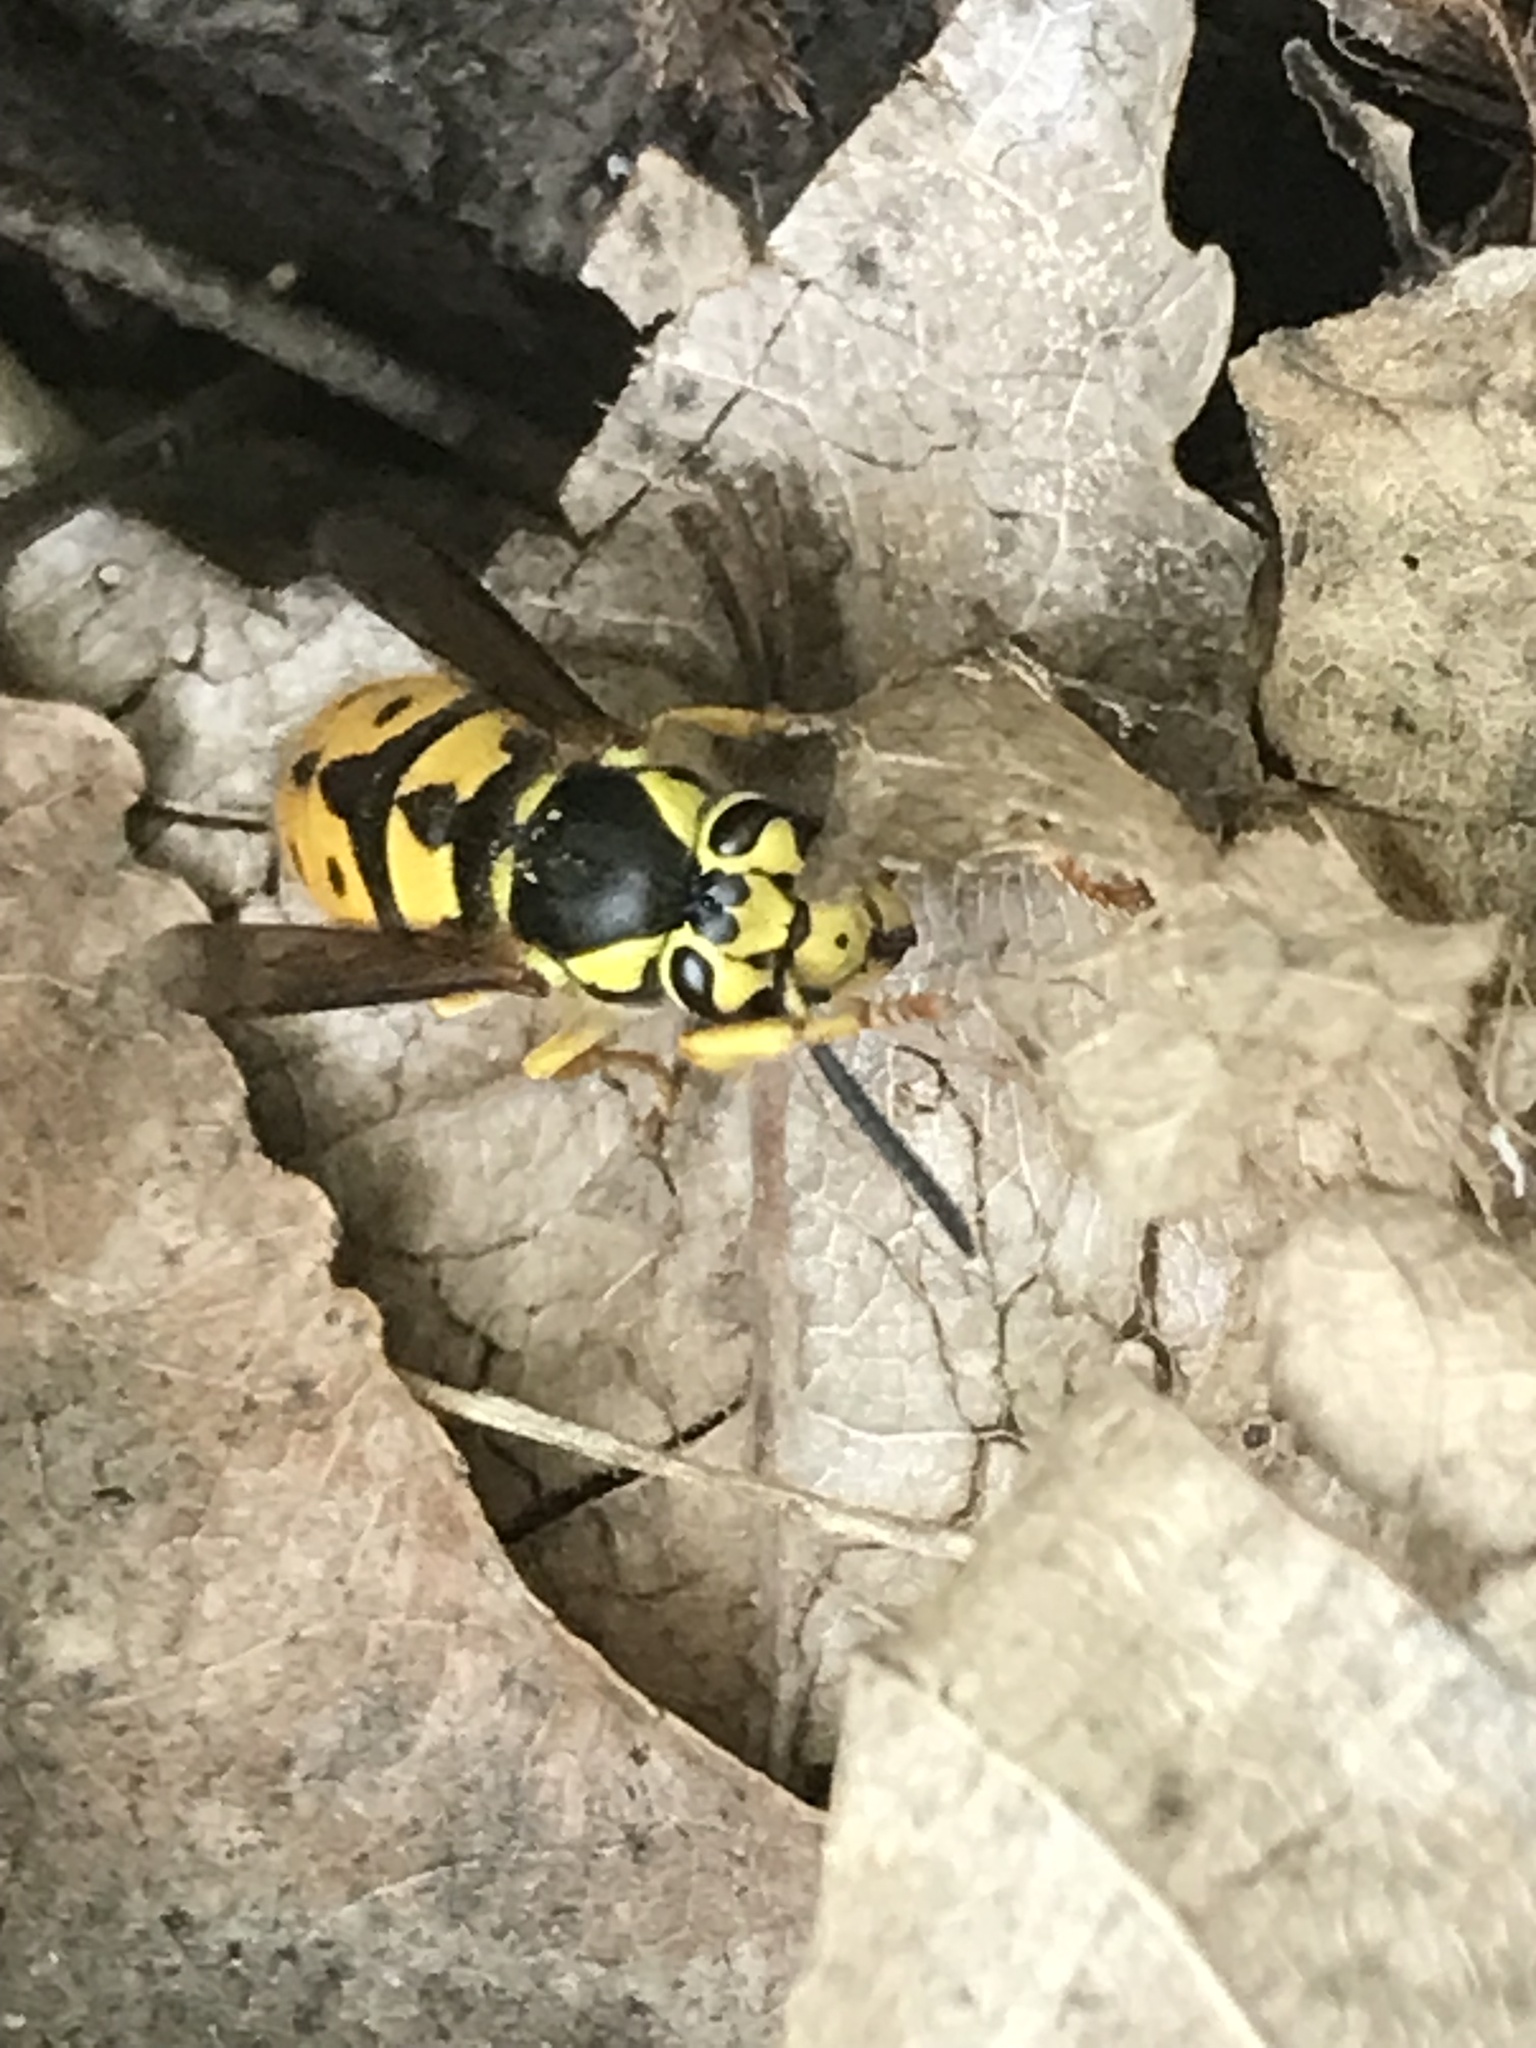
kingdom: Animalia
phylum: Arthropoda
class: Insecta
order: Hymenoptera
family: Vespidae
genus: Vespula
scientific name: Vespula pensylvanica
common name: Western yellowjacket
